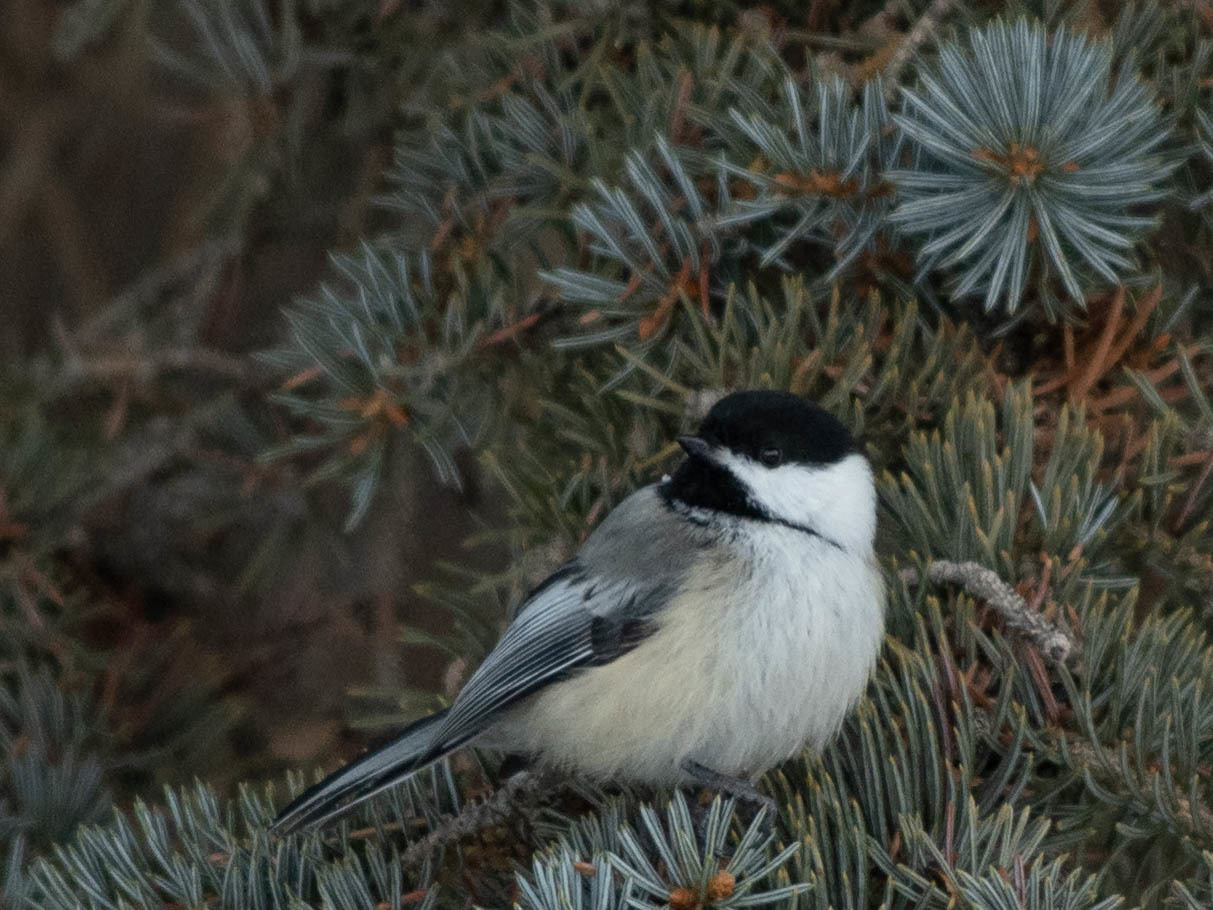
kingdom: Animalia
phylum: Chordata
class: Aves
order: Passeriformes
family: Paridae
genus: Poecile
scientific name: Poecile atricapillus
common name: Black-capped chickadee
